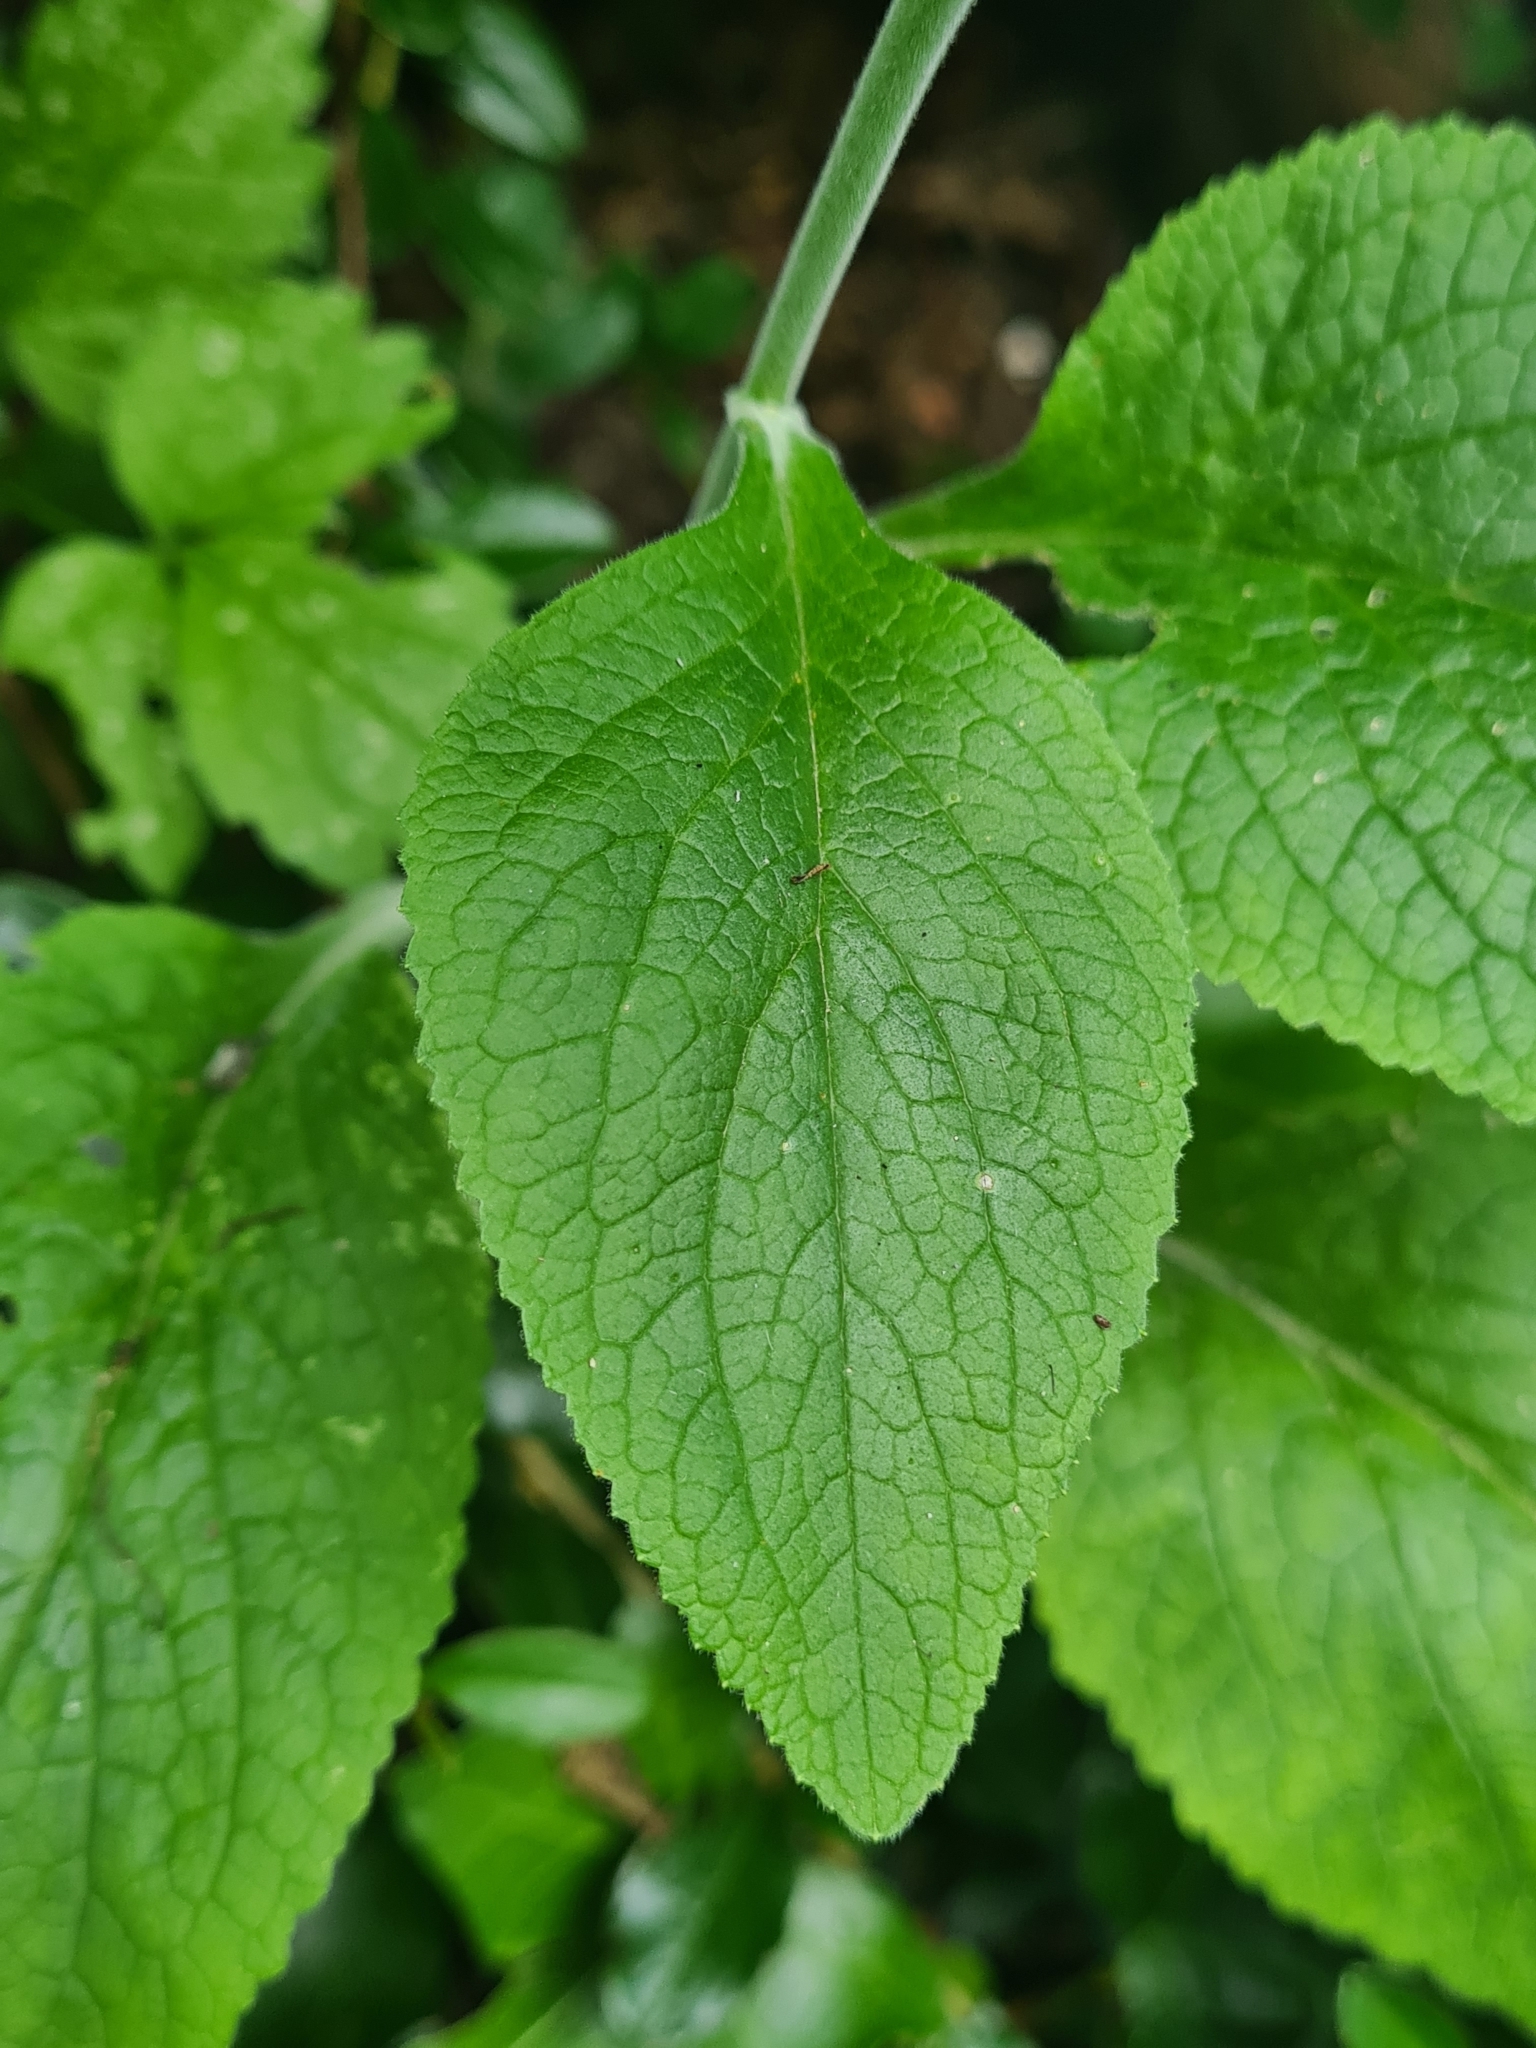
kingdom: Plantae
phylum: Tracheophyta
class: Magnoliopsida
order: Lamiales
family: Plantaginaceae
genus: Digitalis
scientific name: Digitalis purpurea
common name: Foxglove
